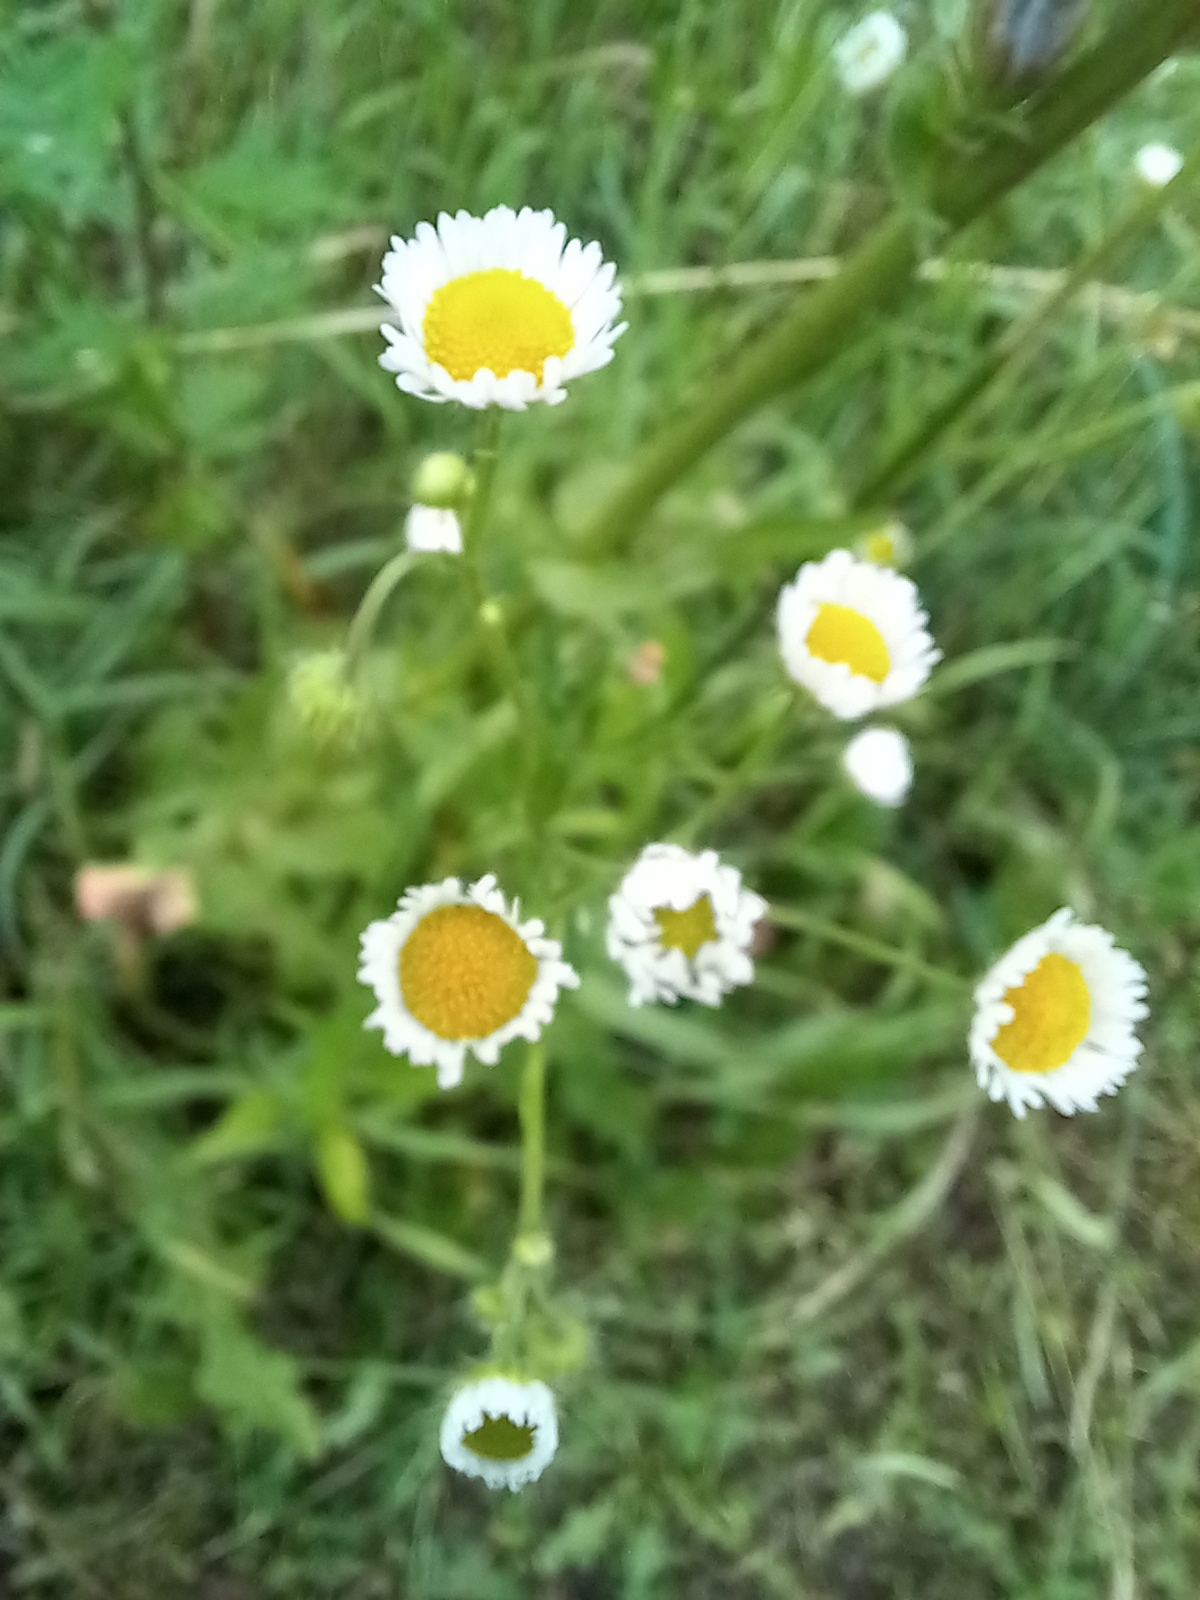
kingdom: Plantae
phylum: Tracheophyta
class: Magnoliopsida
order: Asterales
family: Asteraceae
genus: Erigeron
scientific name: Erigeron annuus
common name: Tall fleabane
